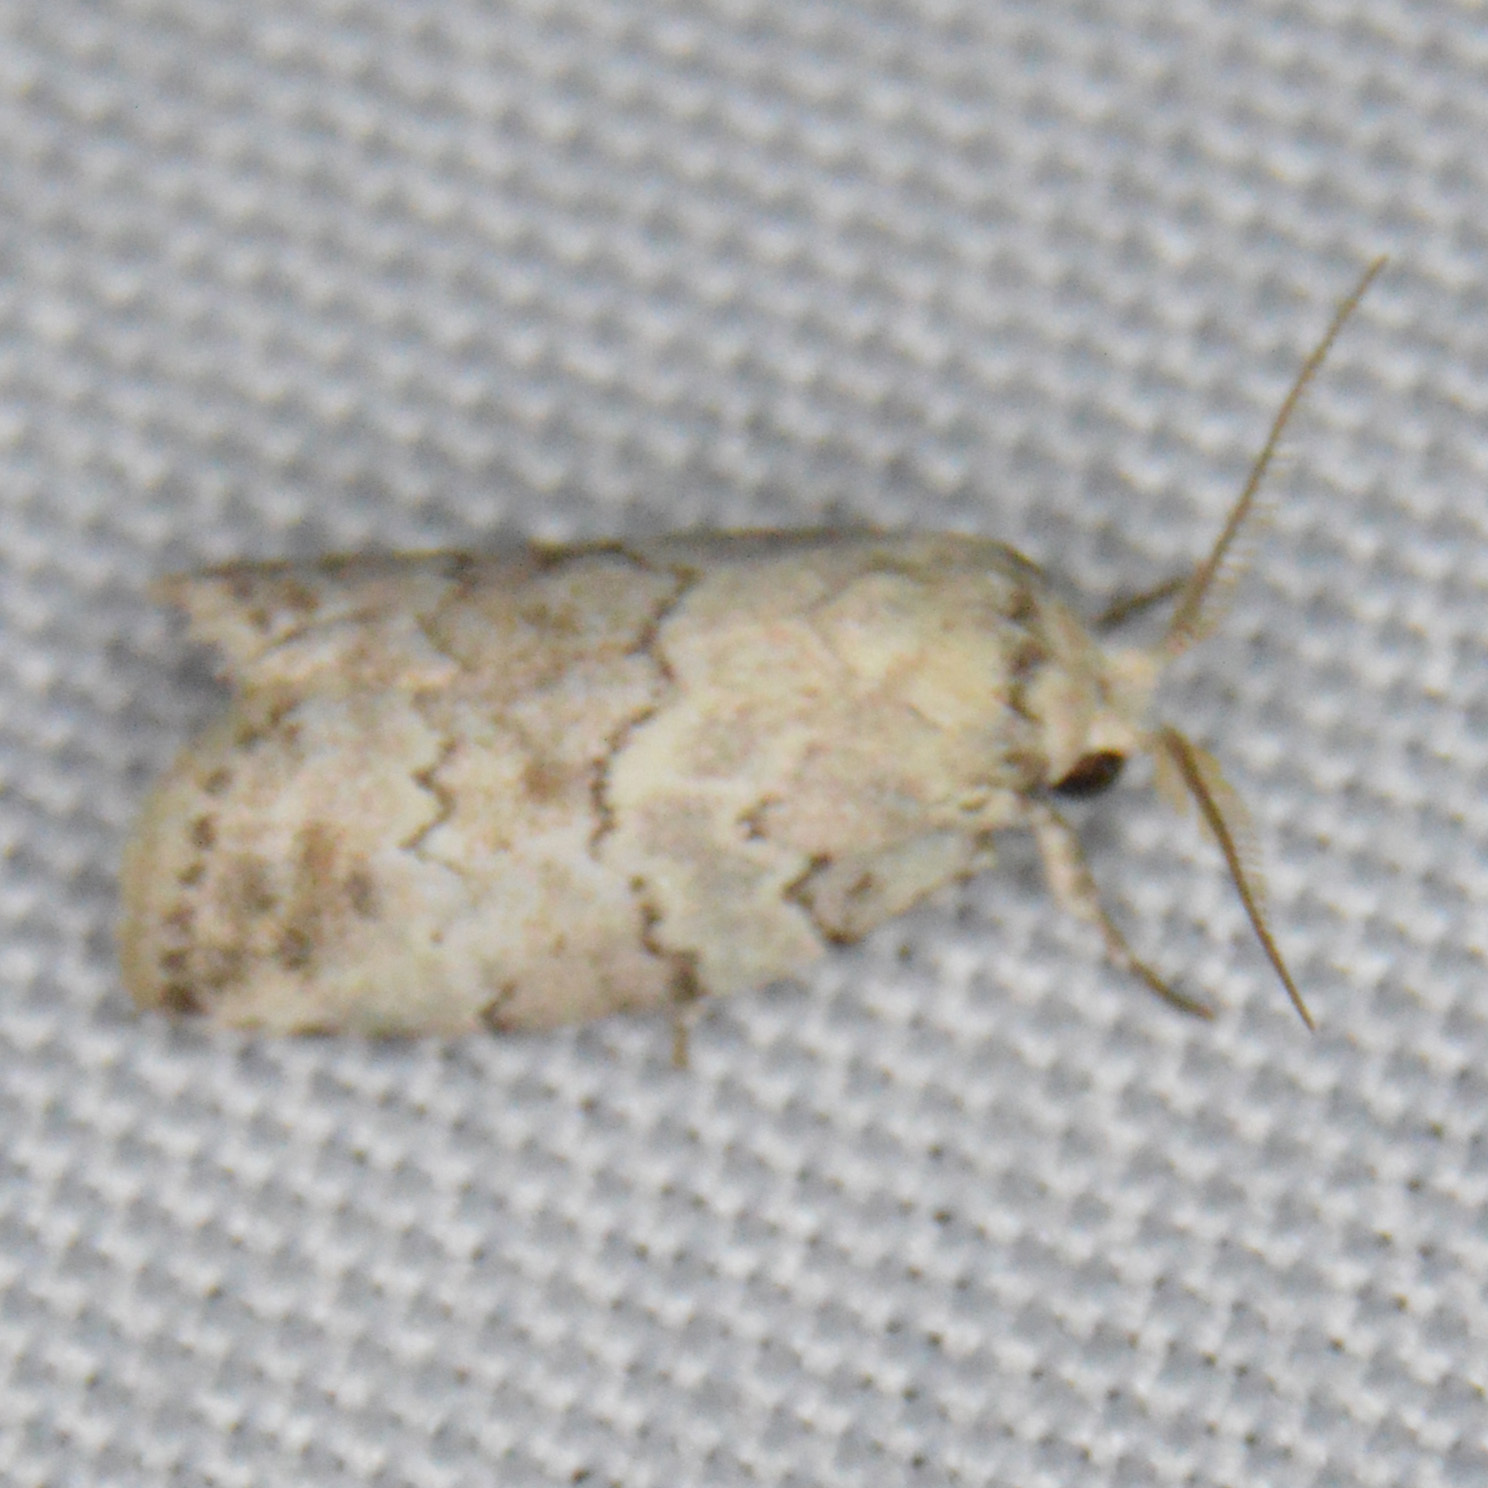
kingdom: Animalia
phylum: Arthropoda
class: Insecta
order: Lepidoptera
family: Nolidae
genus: Afrida
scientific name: Afrida ydatodes
